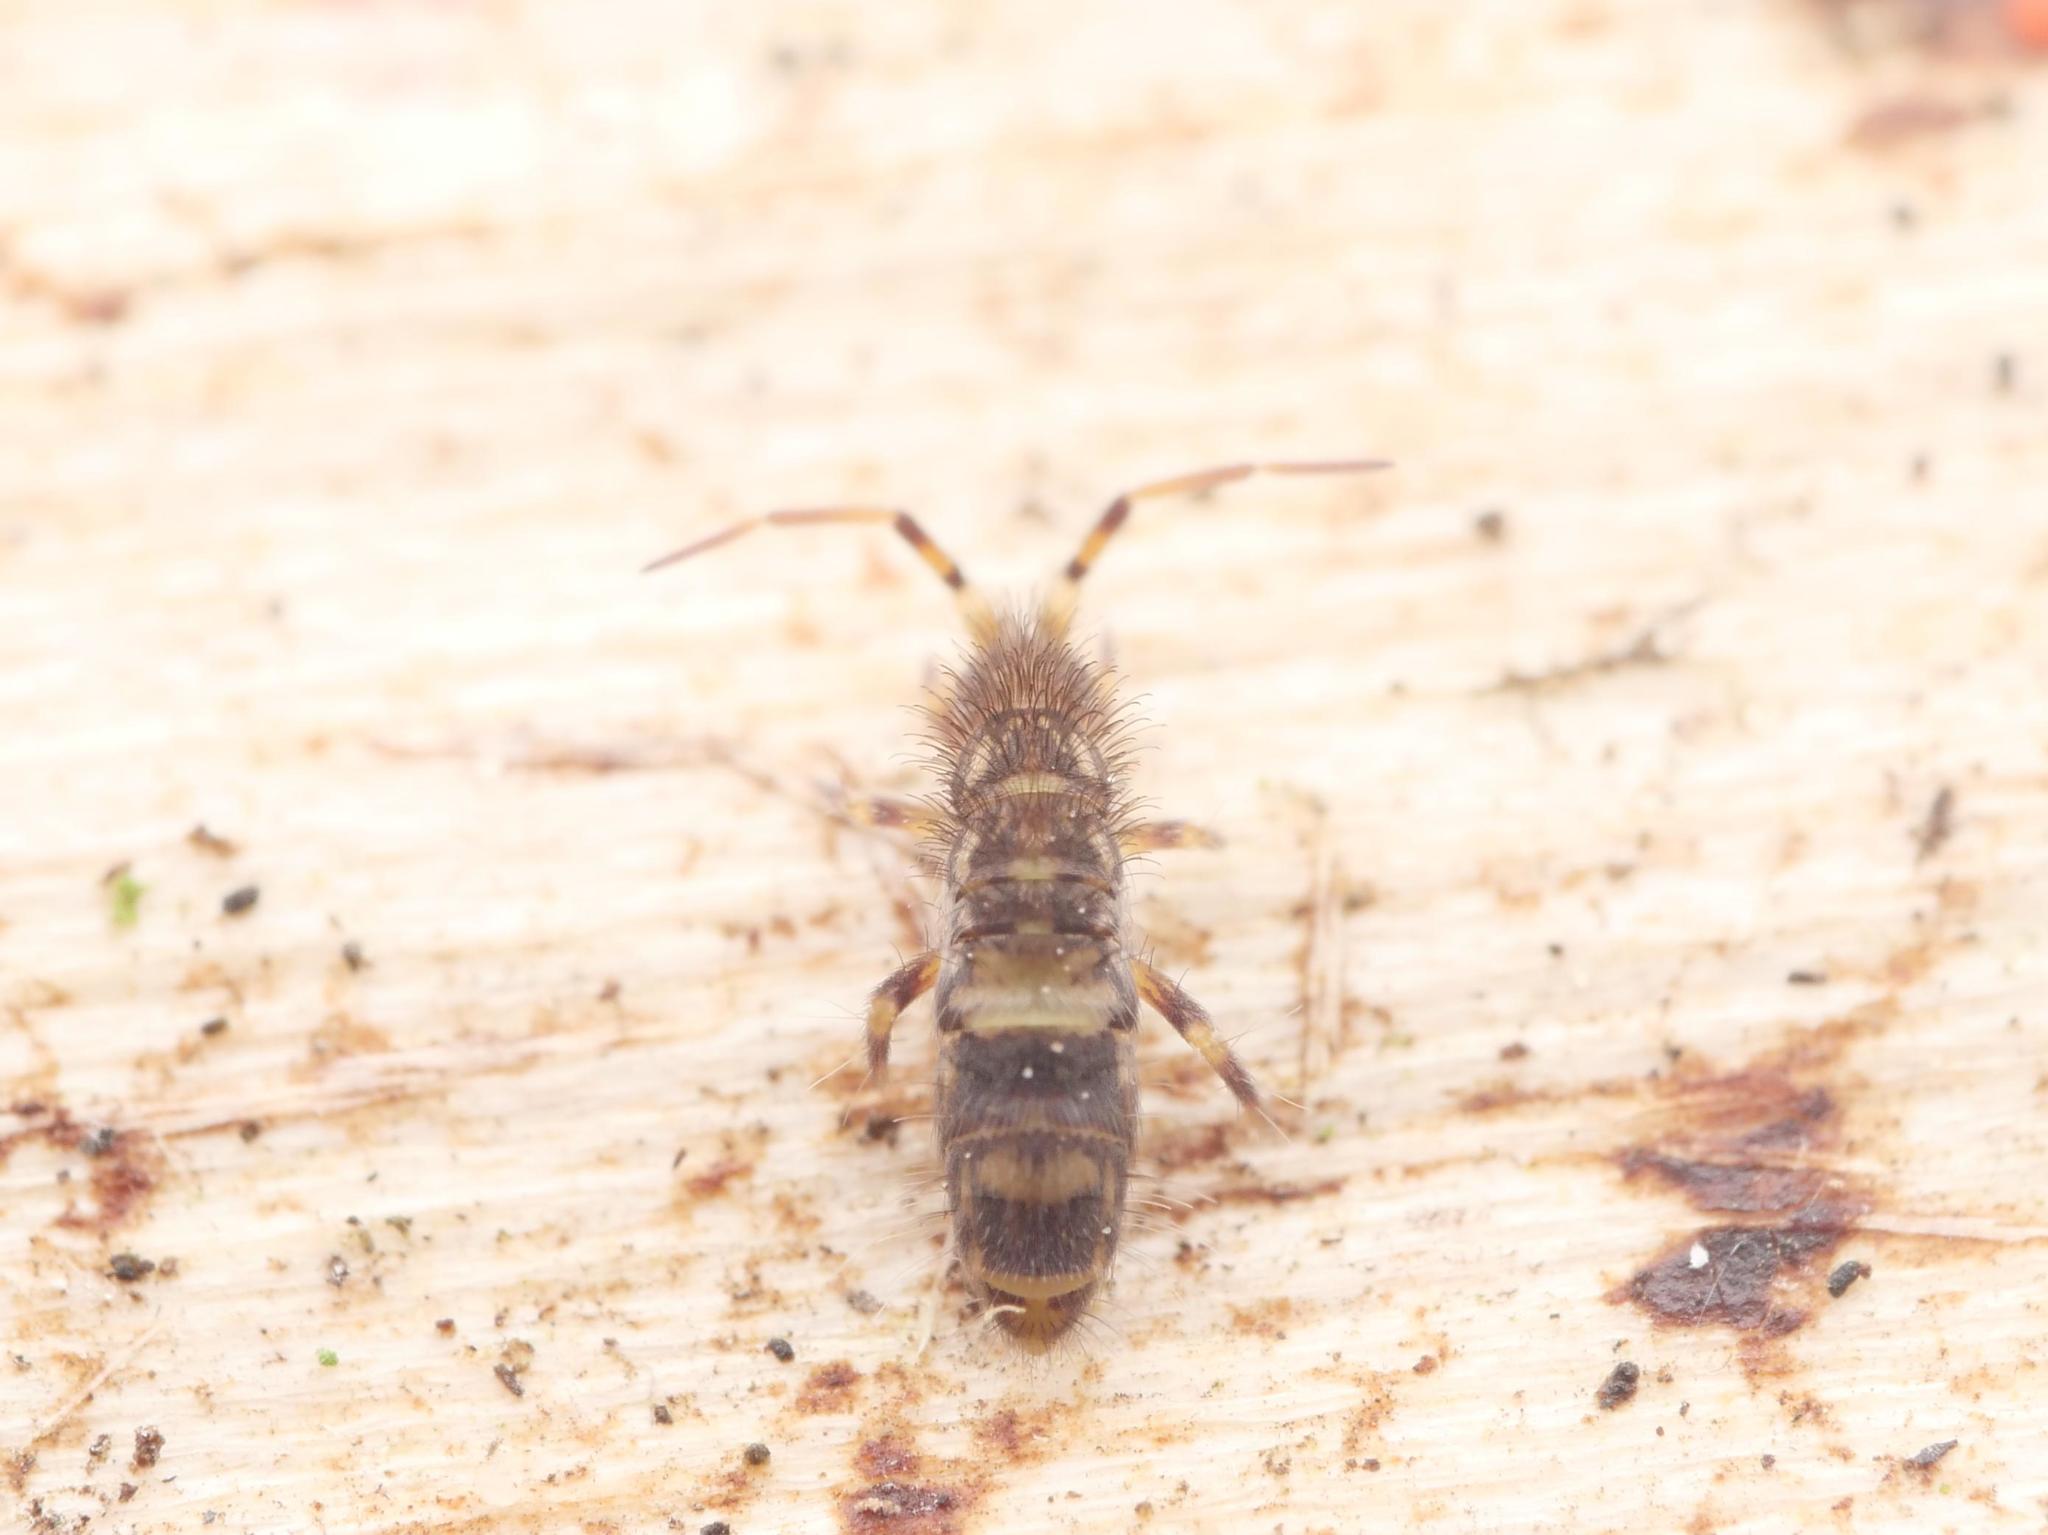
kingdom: Animalia
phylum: Arthropoda
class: Collembola
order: Entomobryomorpha
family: Orchesellidae
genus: Orchesella
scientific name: Orchesella cincta
